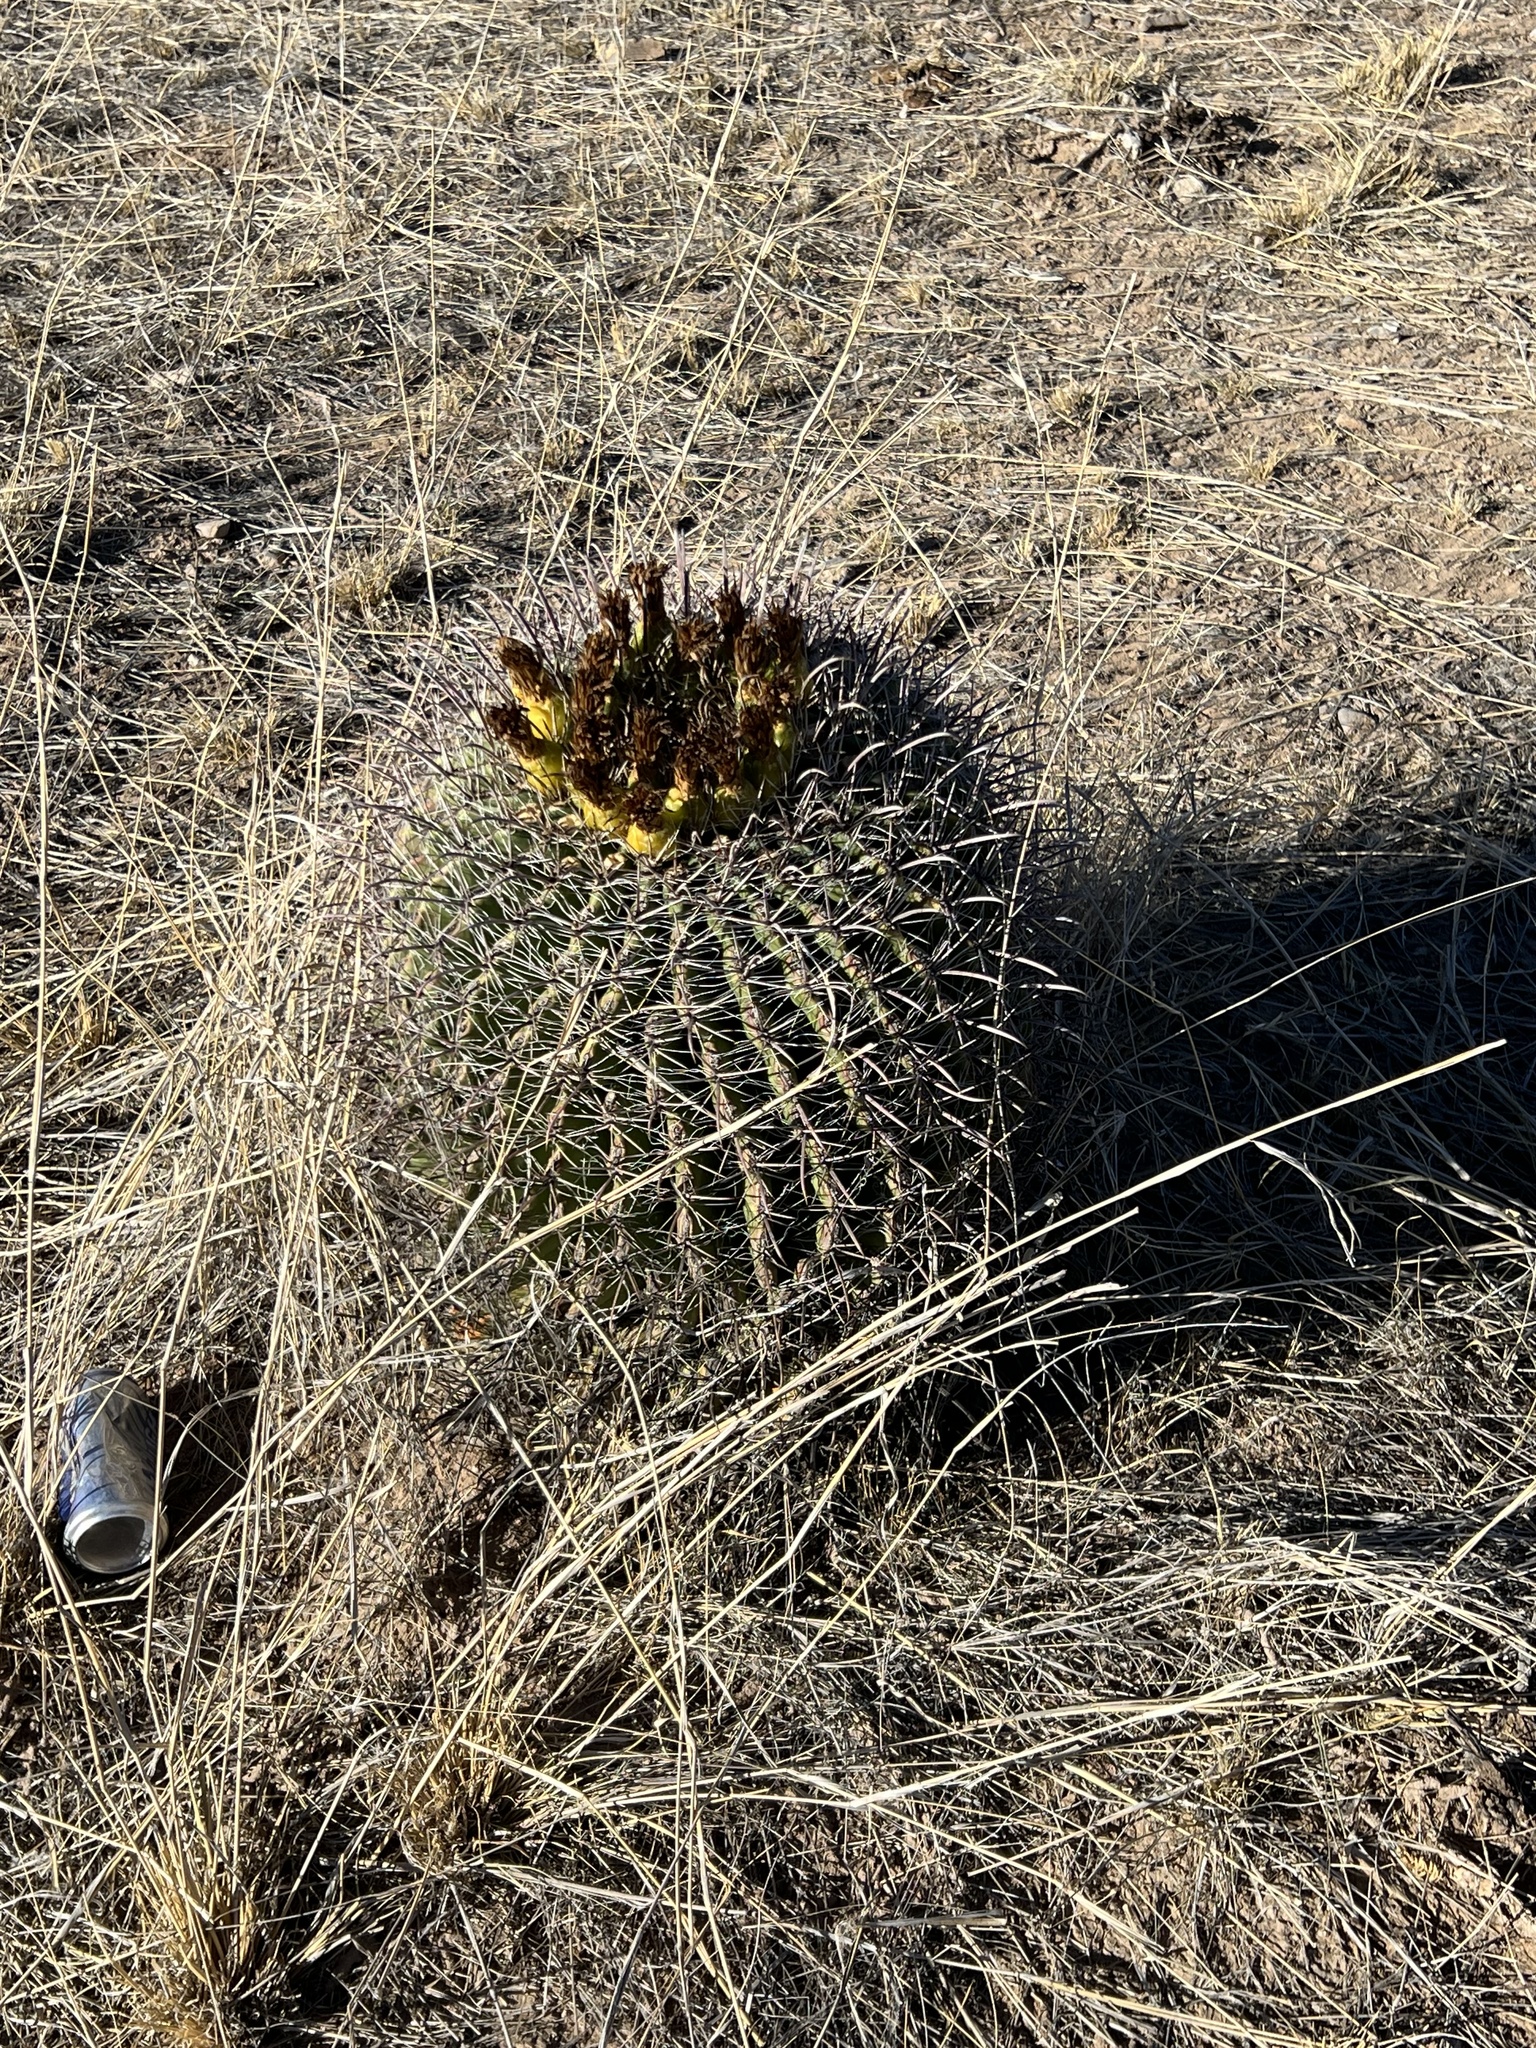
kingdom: Plantae
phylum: Tracheophyta
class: Magnoliopsida
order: Caryophyllales
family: Cactaceae
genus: Ferocactus
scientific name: Ferocactus wislizeni
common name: Candy barrel cactus
